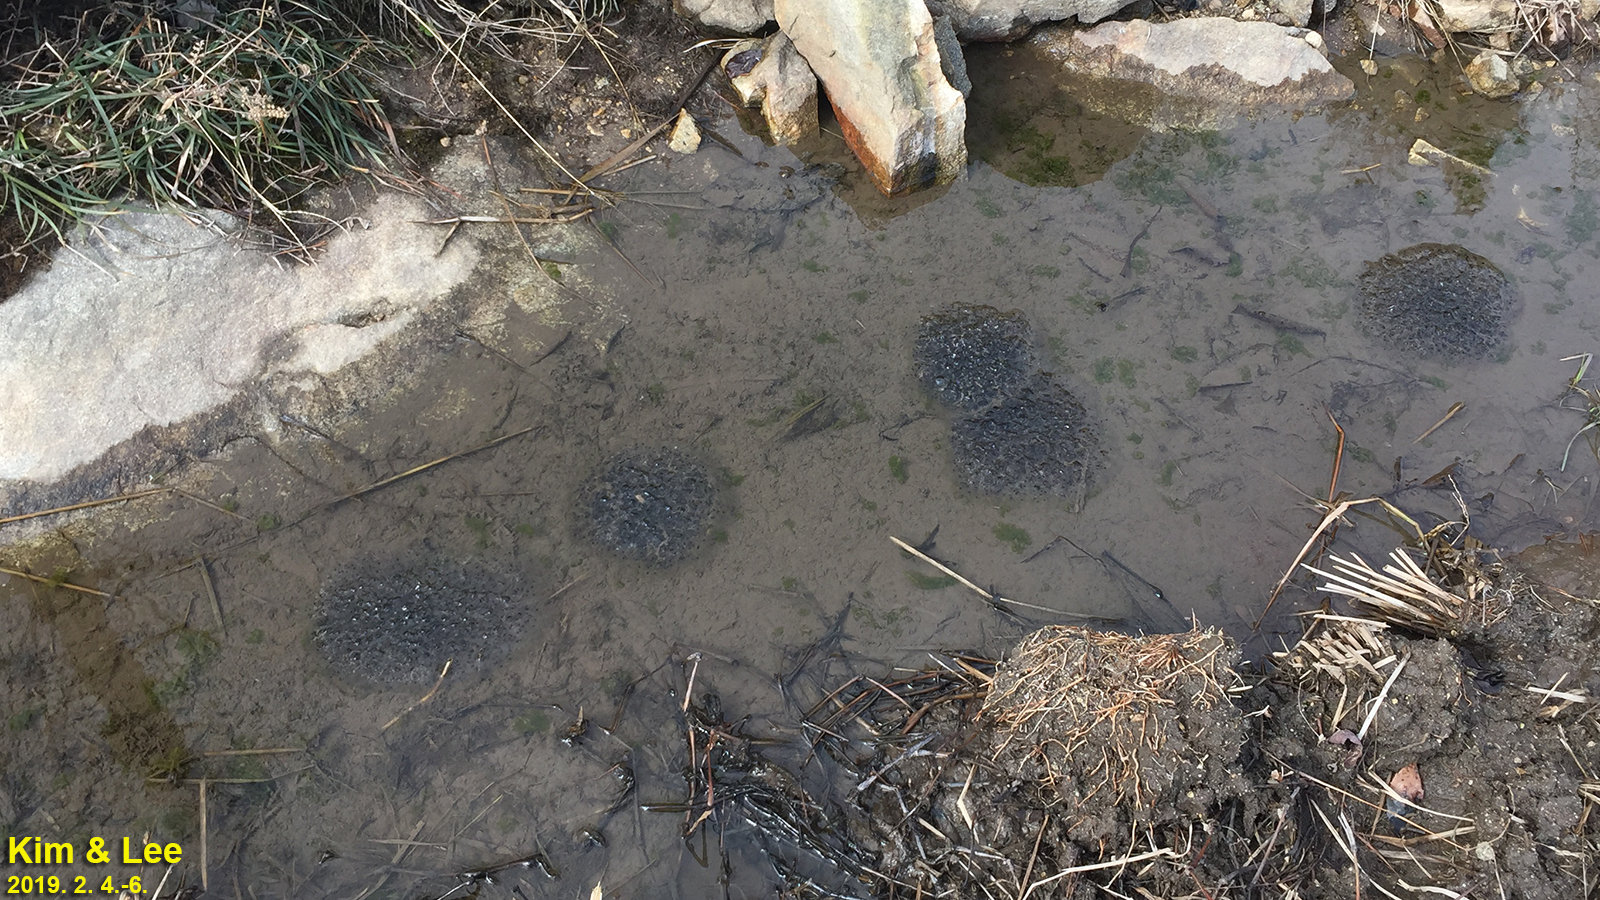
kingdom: Animalia
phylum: Chordata
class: Amphibia
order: Anura
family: Ranidae
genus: Rana
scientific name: Rana uenoi
